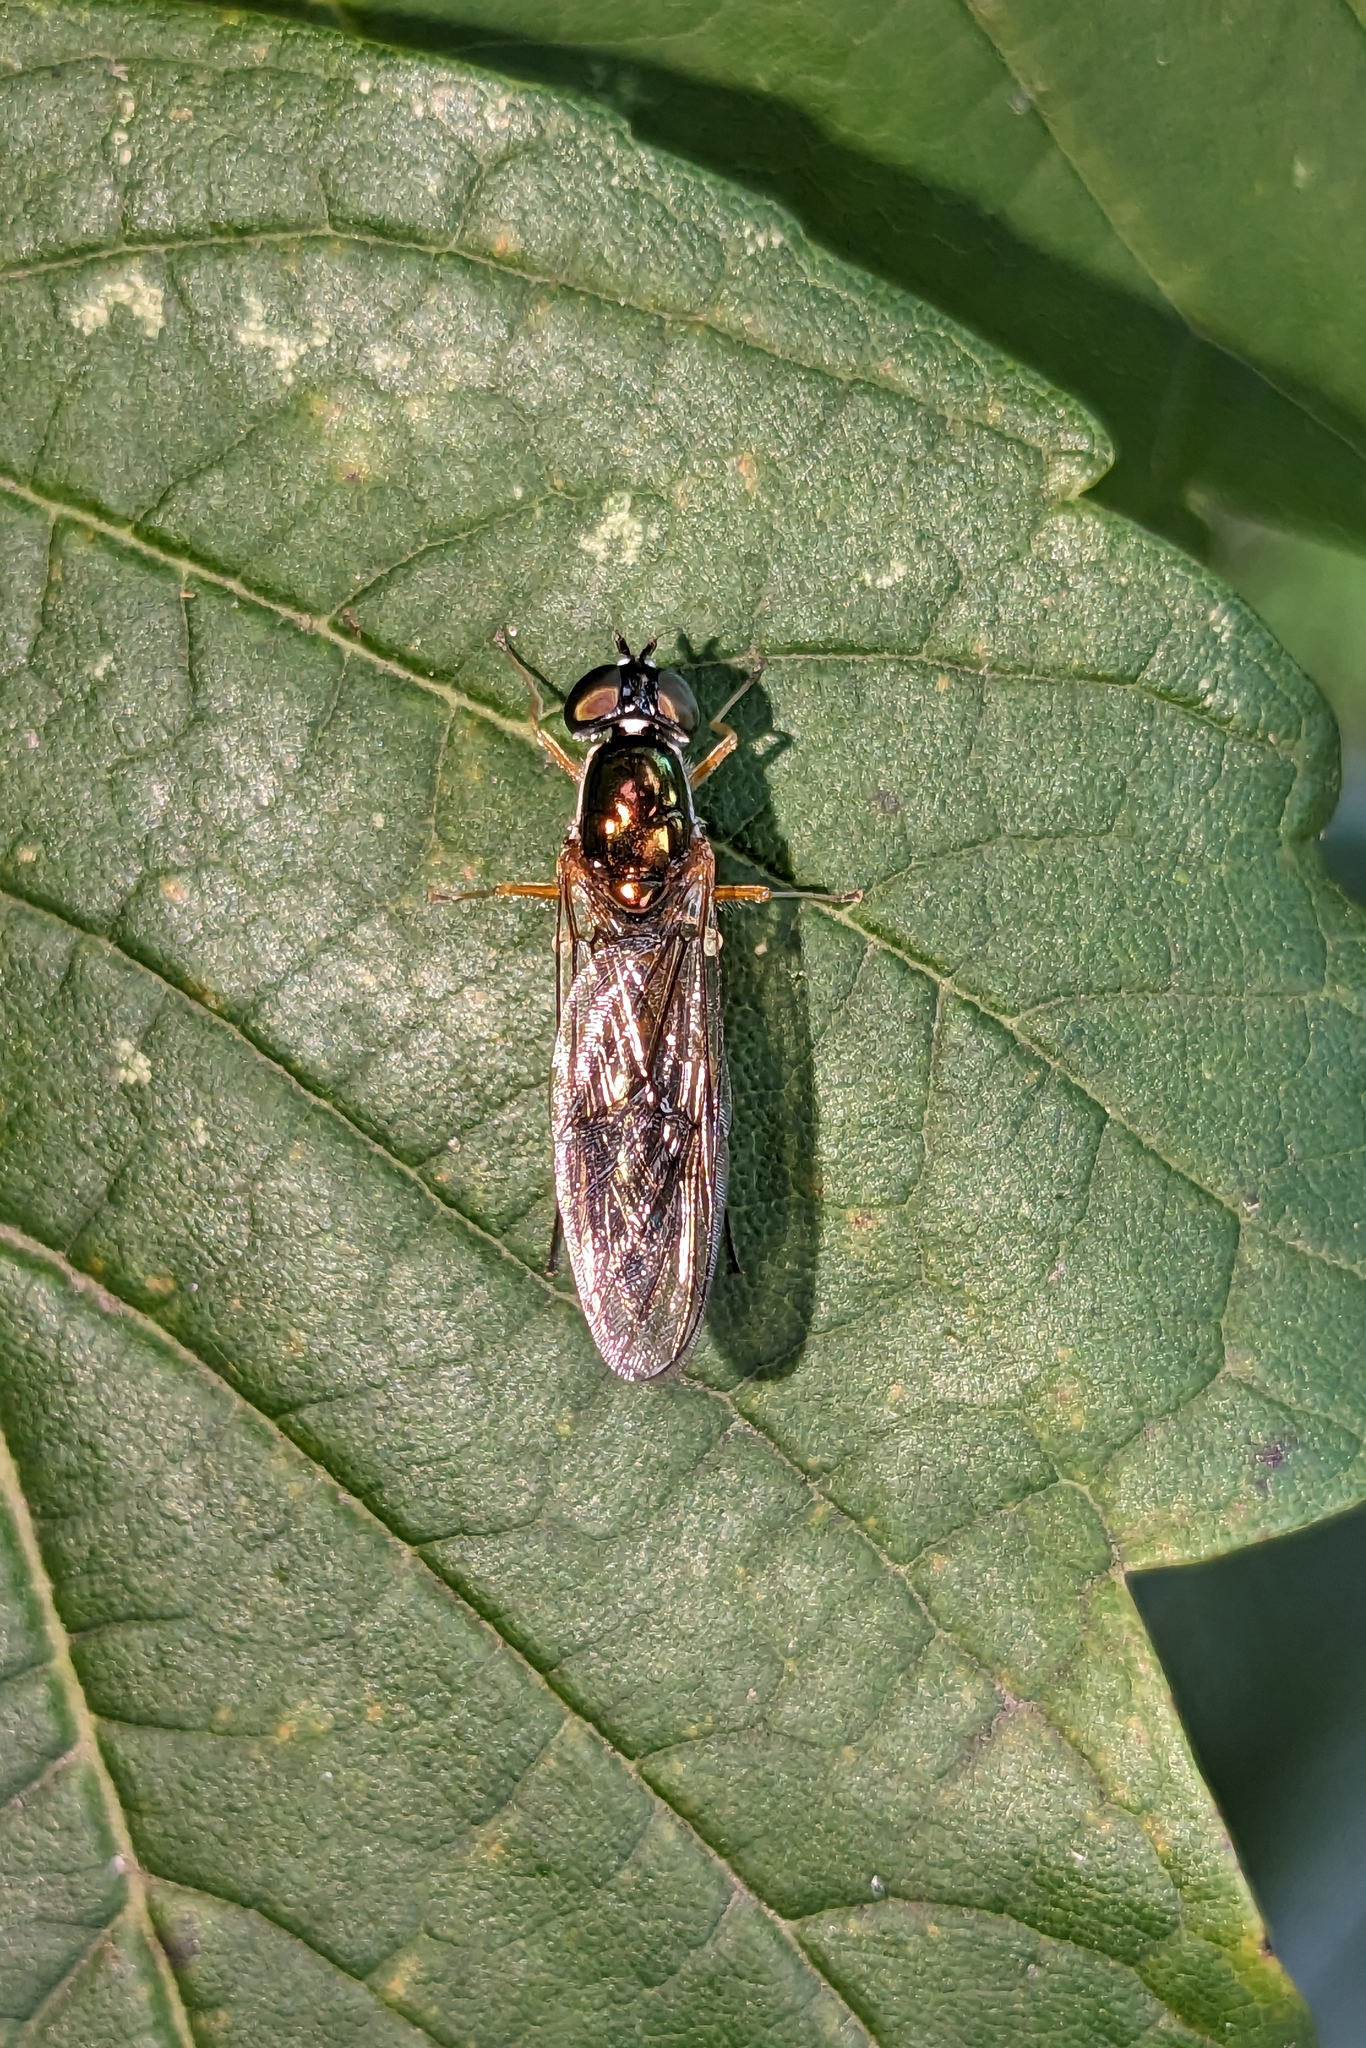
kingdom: Animalia
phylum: Arthropoda
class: Insecta
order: Diptera
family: Stratiomyidae
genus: Sargus
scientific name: Sargus bipunctatus
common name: Twin-spot centurion
